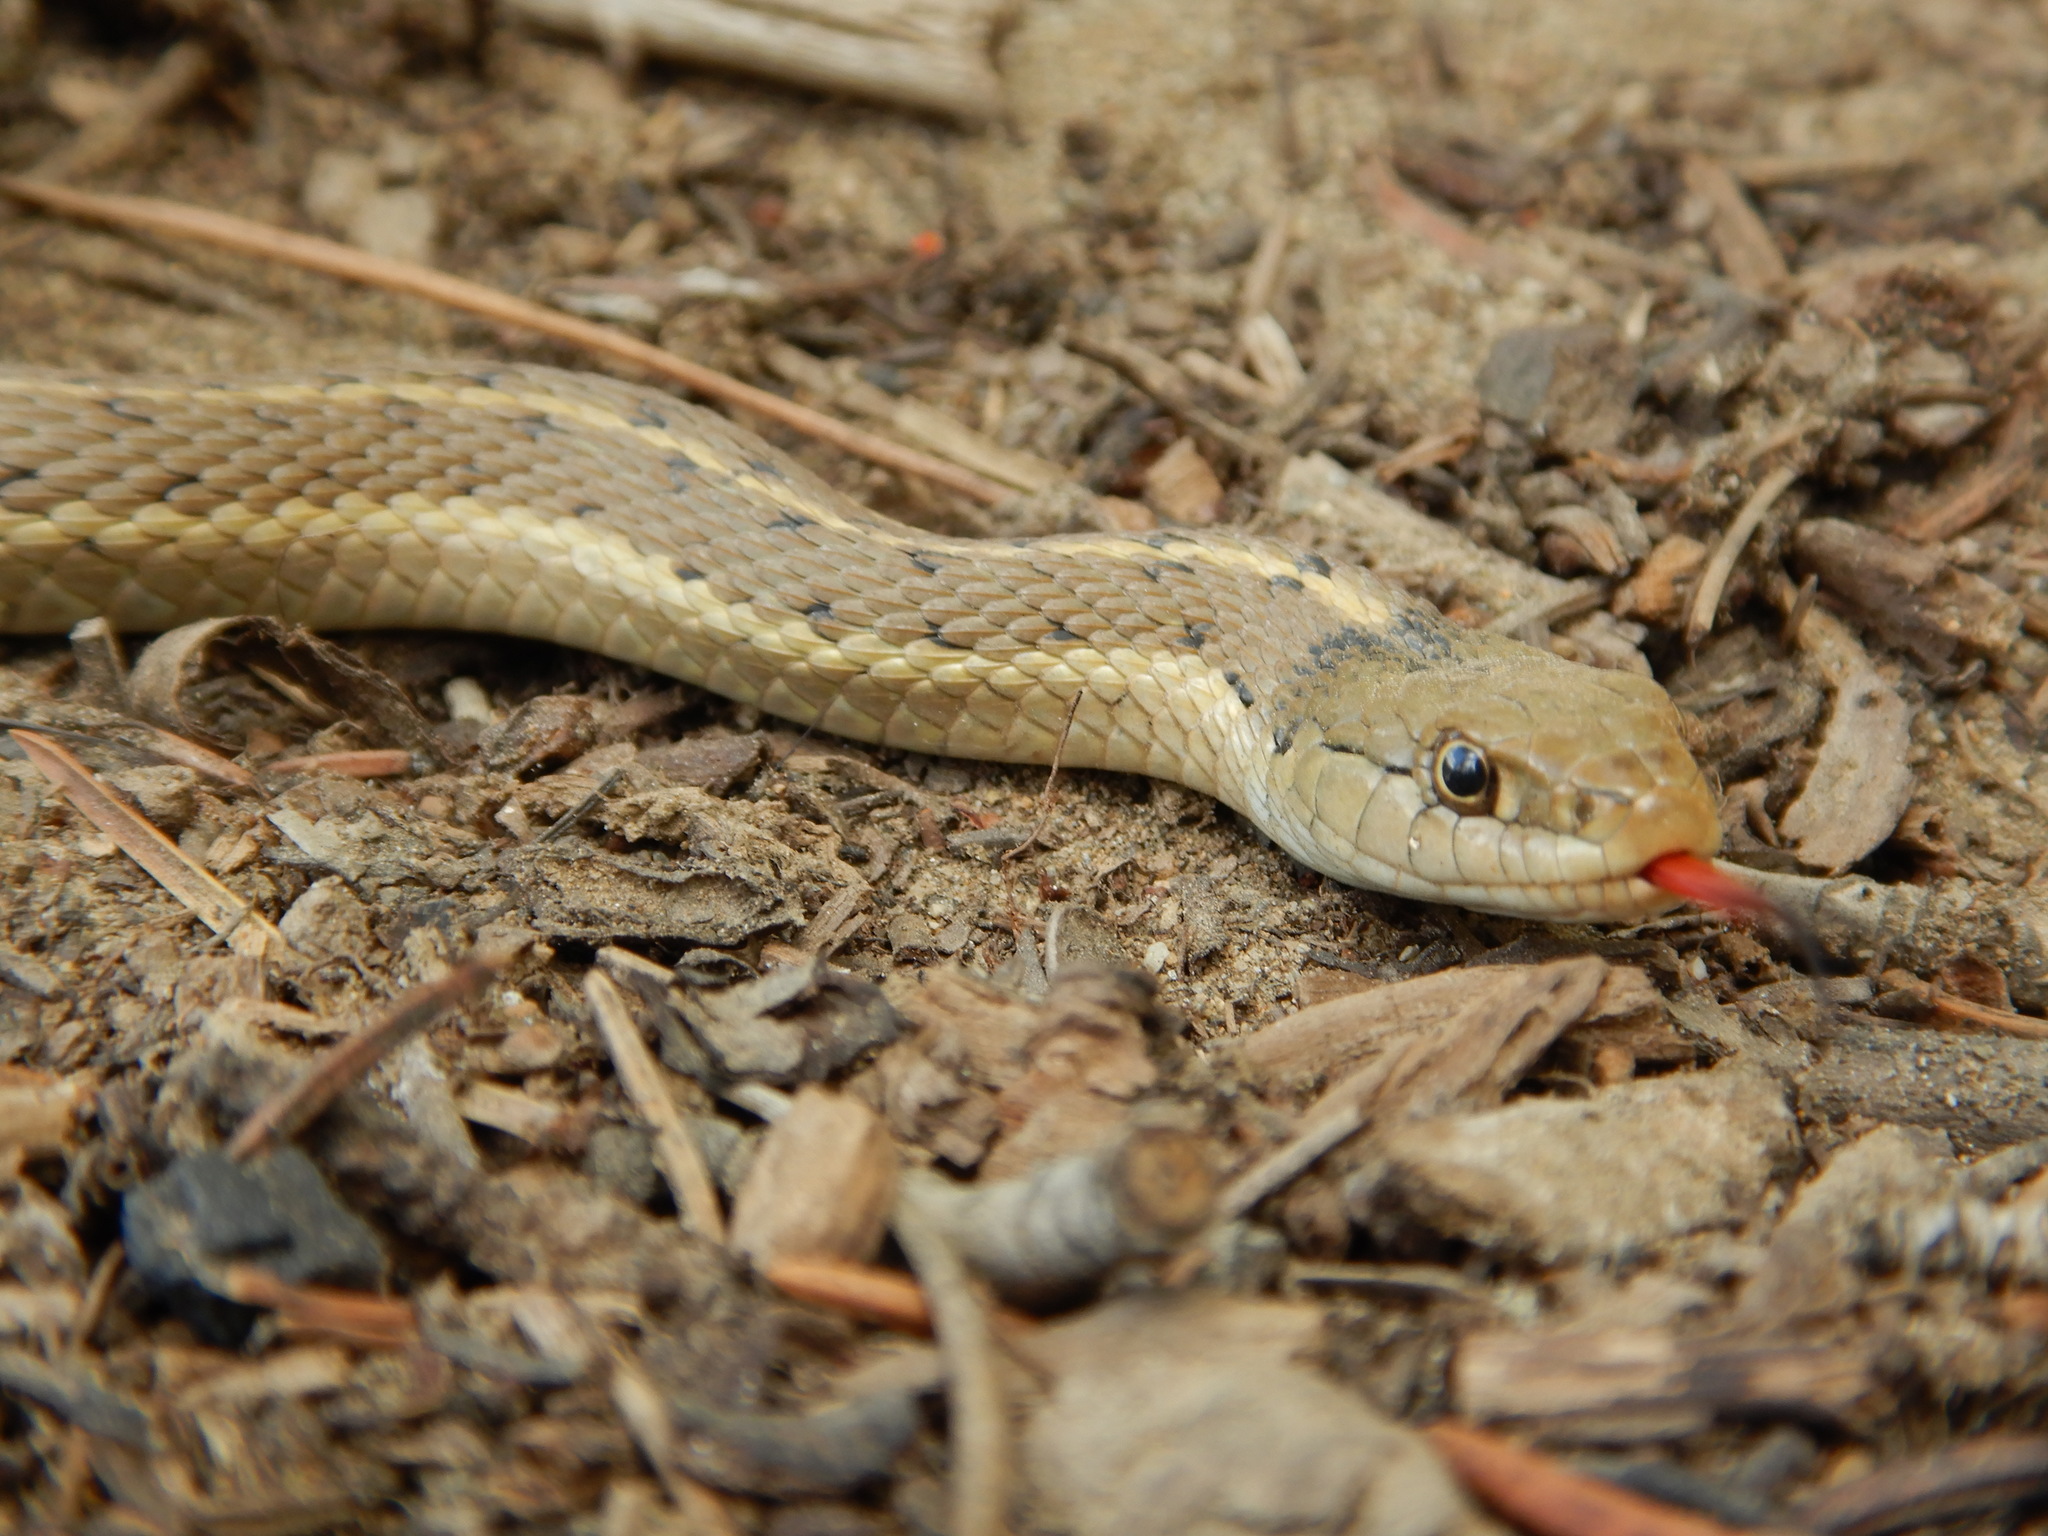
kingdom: Animalia
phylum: Chordata
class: Squamata
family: Colubridae
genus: Thamnophis
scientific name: Thamnophis elegans
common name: Western terrestrial garter snake
